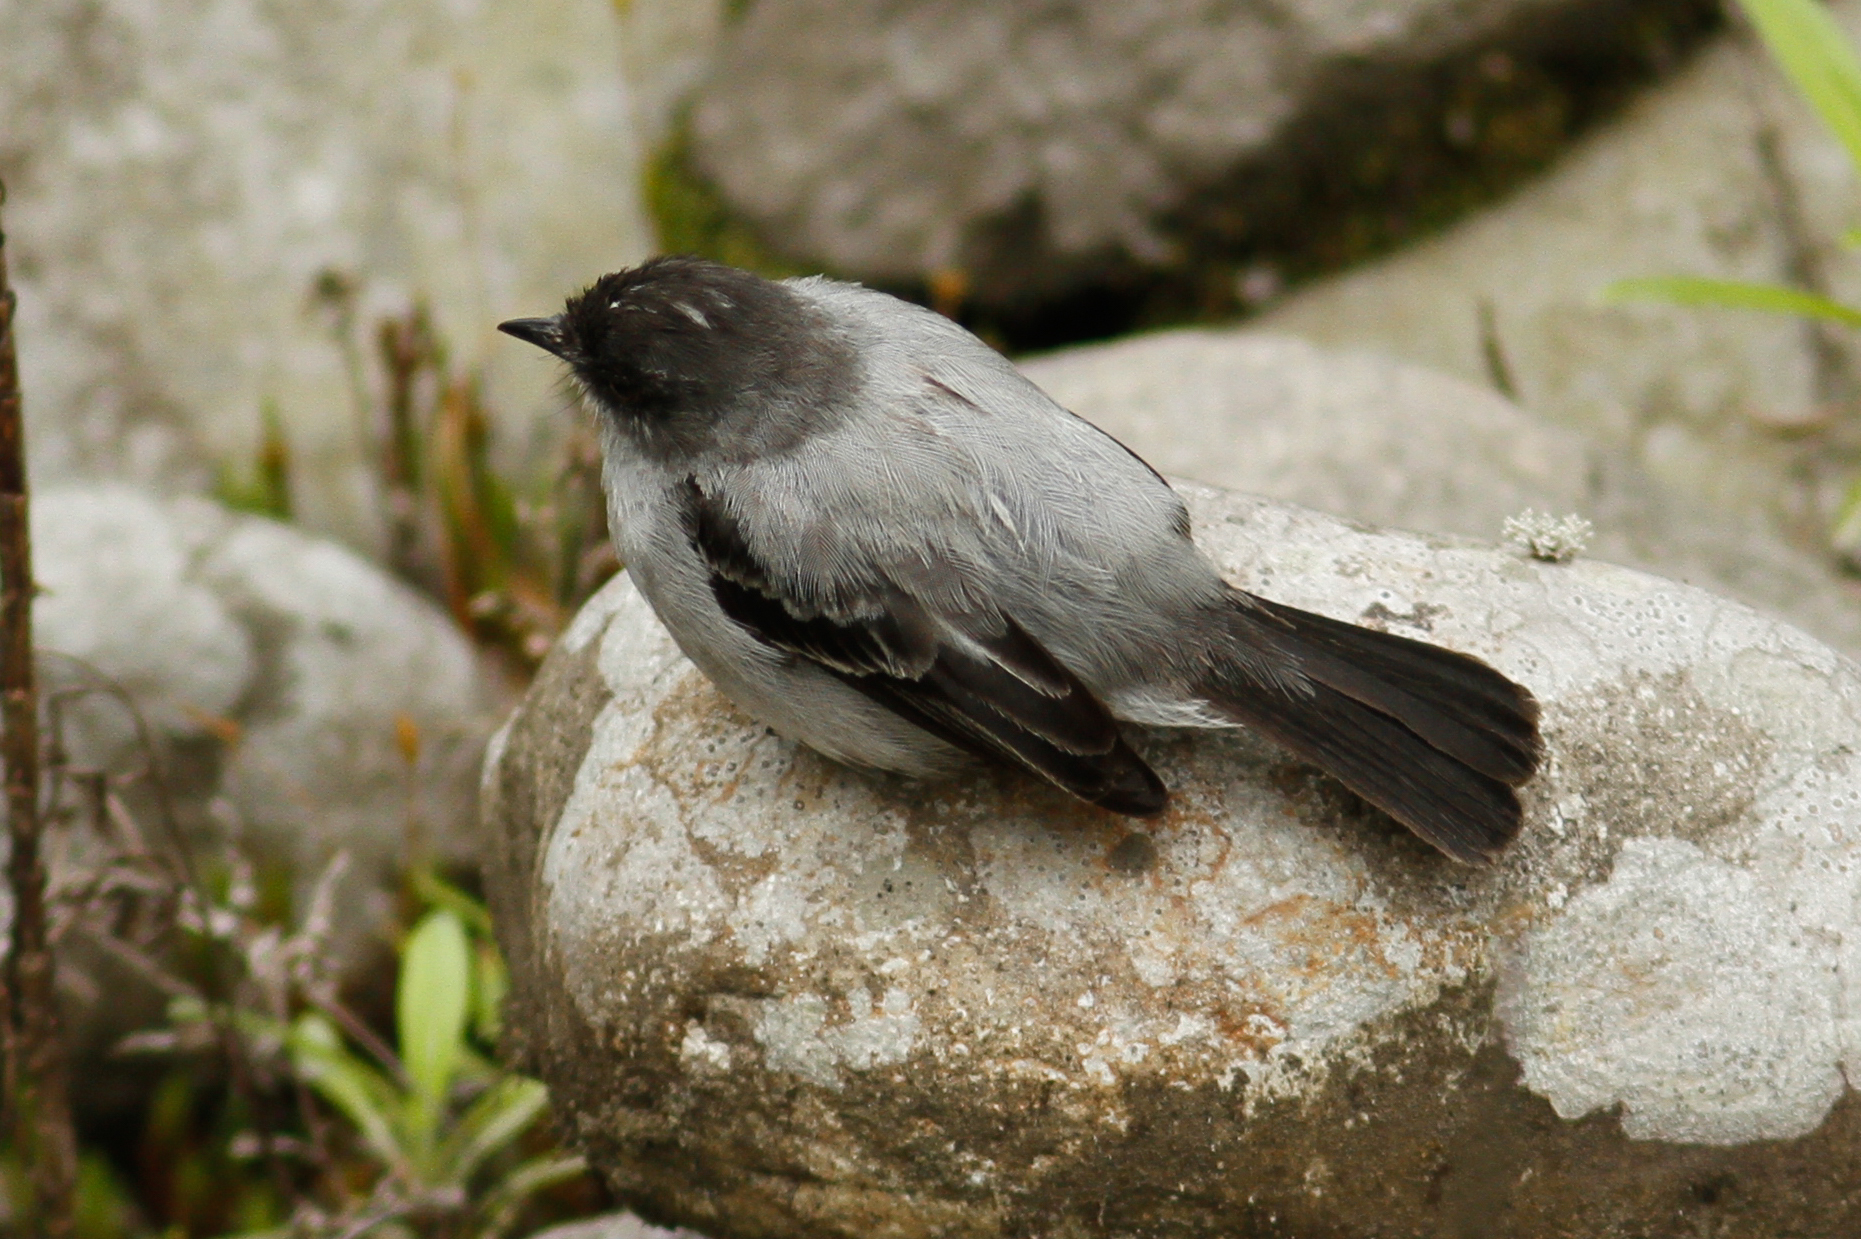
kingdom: Animalia
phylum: Chordata
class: Aves
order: Passeriformes
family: Tyrannidae
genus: Serpophaga
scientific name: Serpophaga cinerea
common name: Torrent tyrannulet
